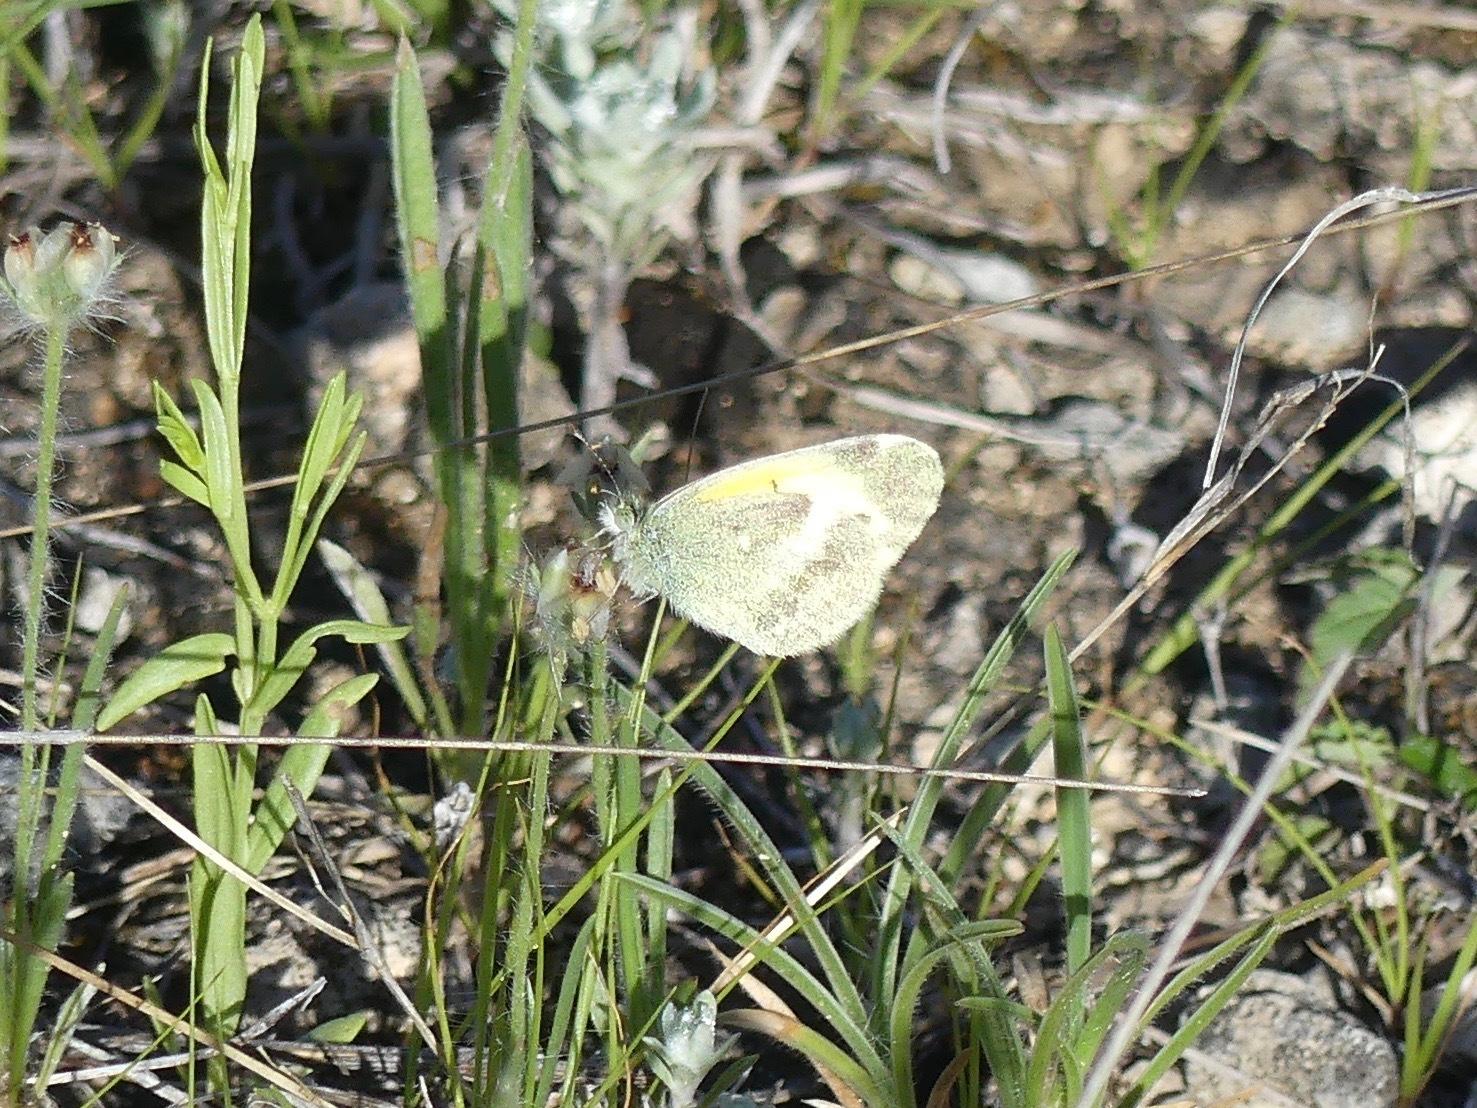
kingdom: Animalia
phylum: Arthropoda
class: Insecta
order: Lepidoptera
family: Pieridae
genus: Nathalis
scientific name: Nathalis iole
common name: Dainty sulphur
